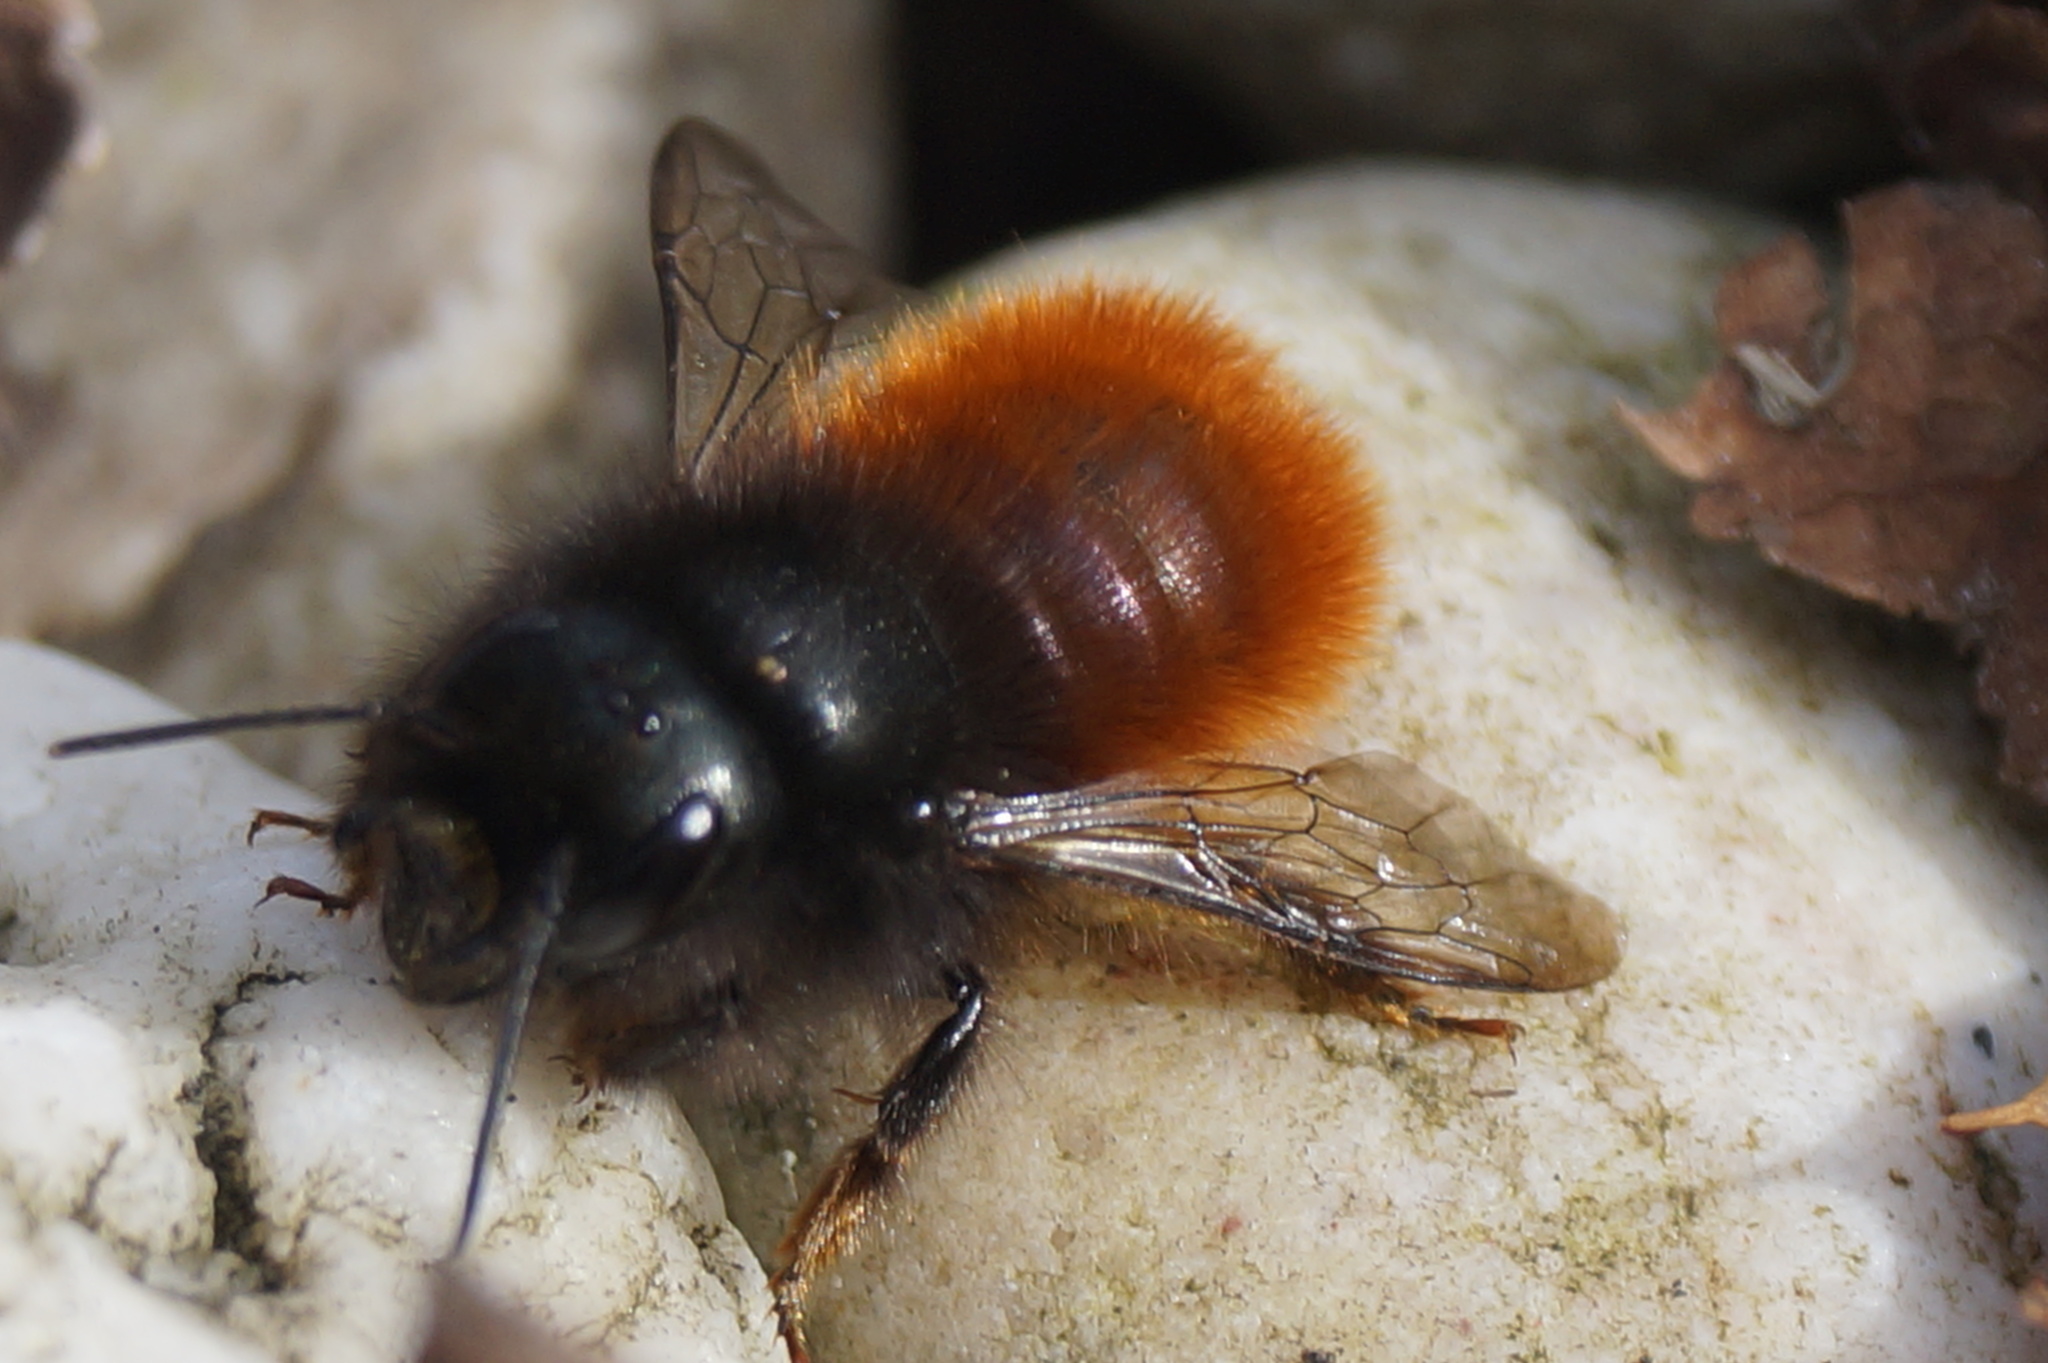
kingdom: Animalia
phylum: Arthropoda
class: Insecta
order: Hymenoptera
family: Megachilidae
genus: Osmia
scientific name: Osmia cornuta
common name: Mason bee
